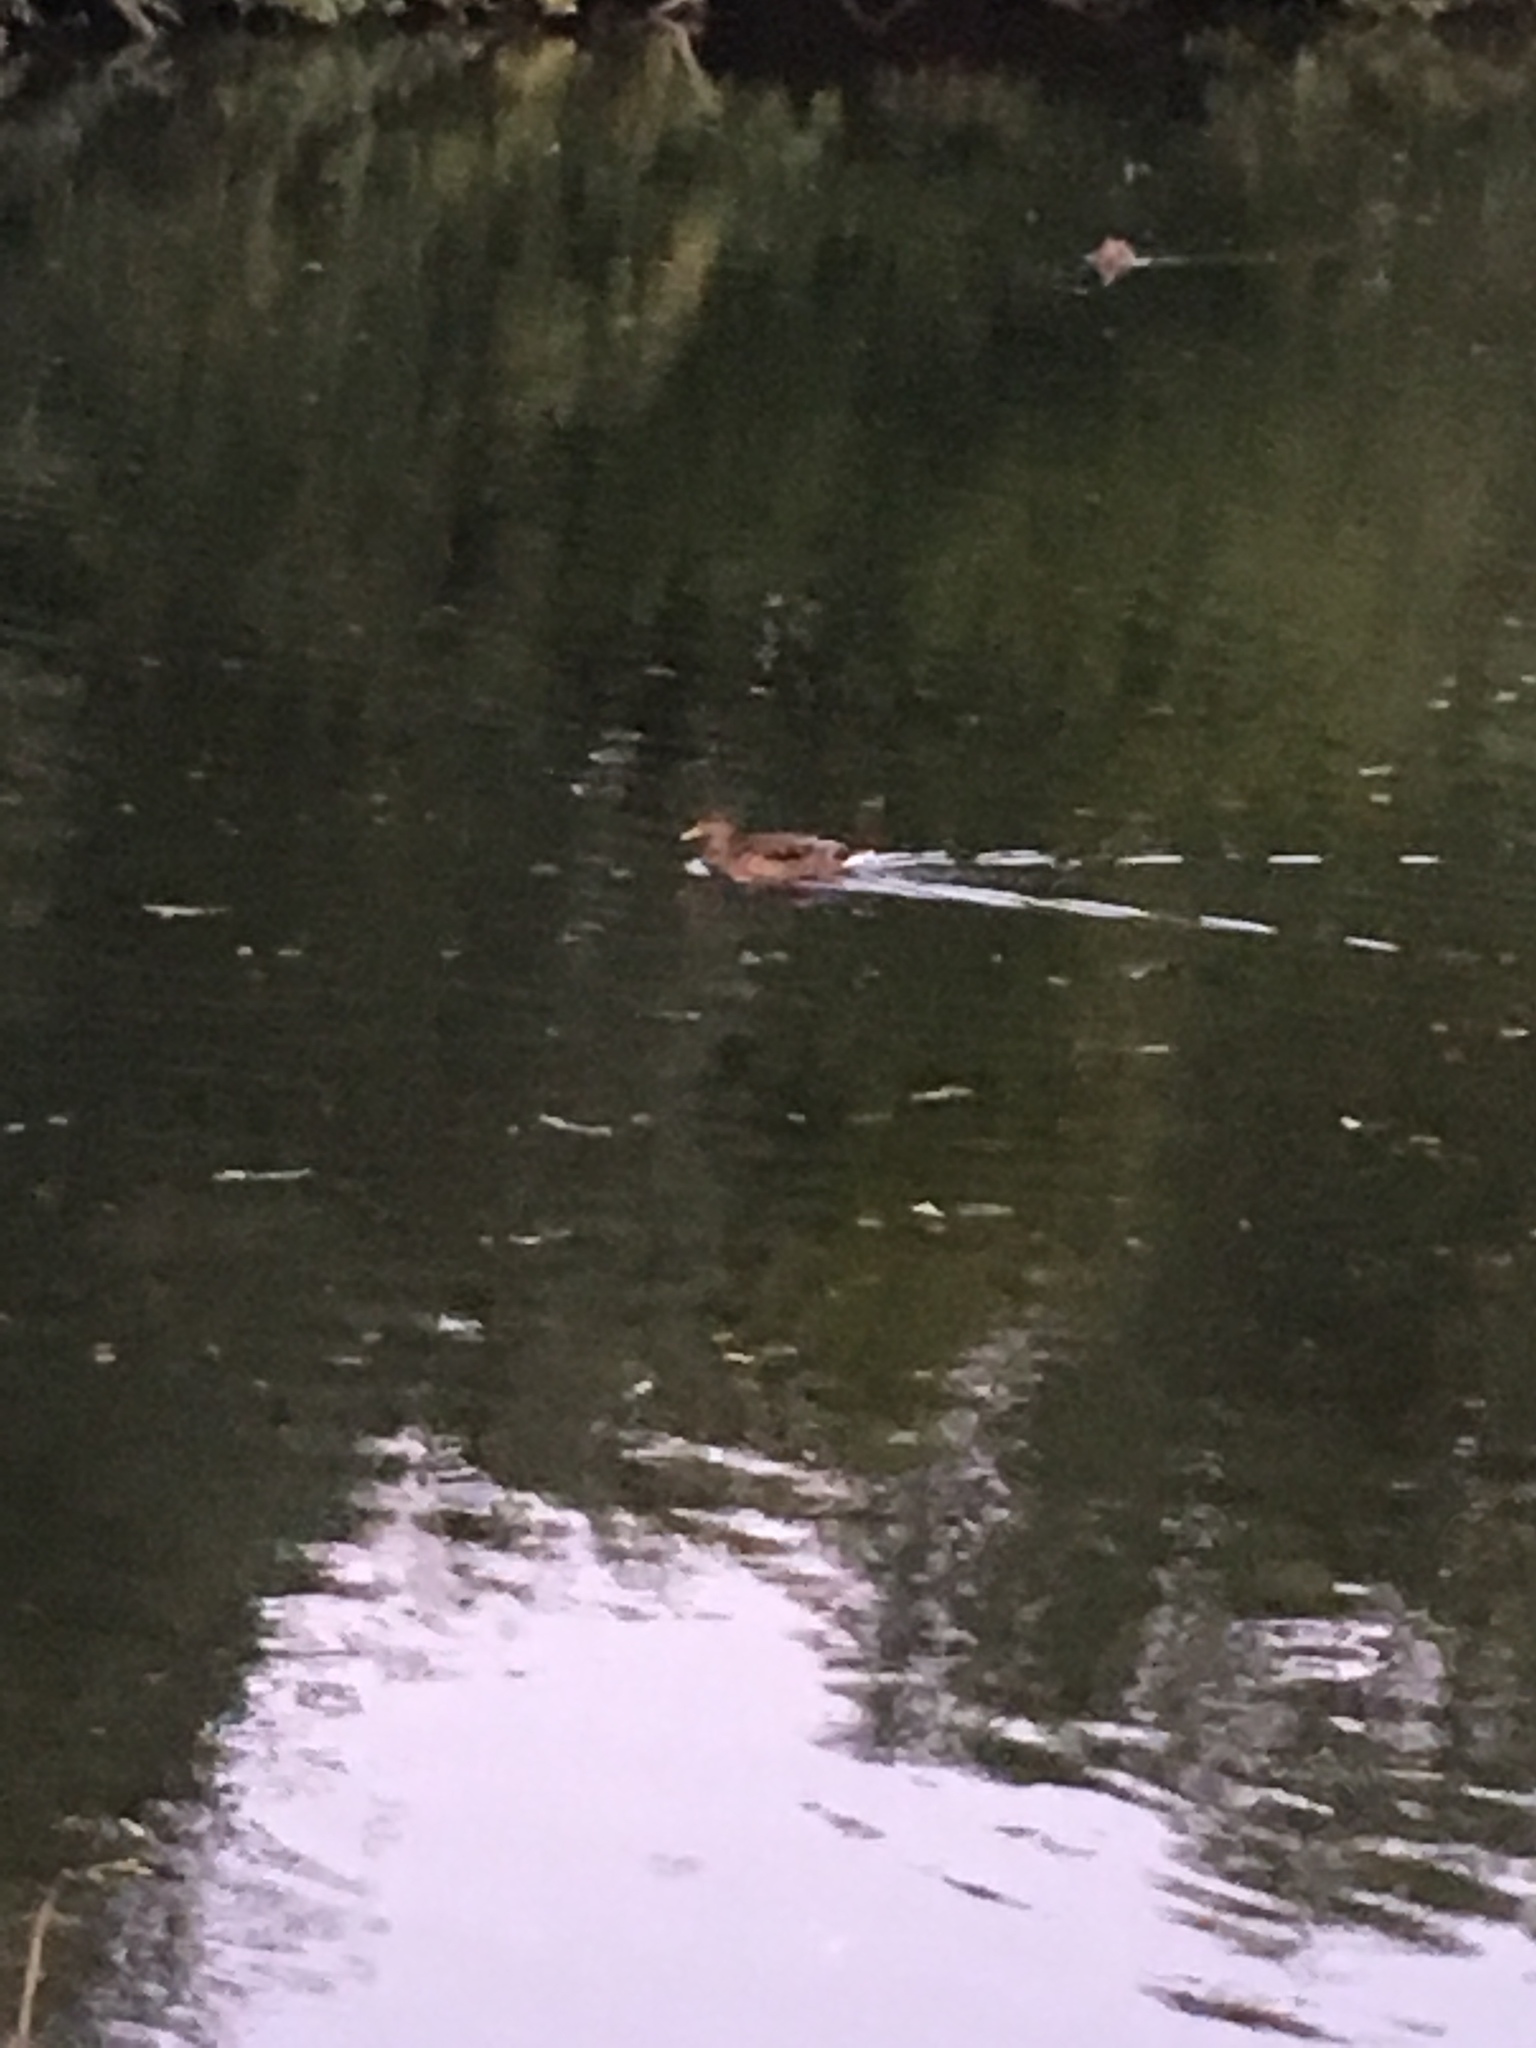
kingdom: Animalia
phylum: Chordata
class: Aves
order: Anseriformes
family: Anatidae
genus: Anas
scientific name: Anas platyrhynchos
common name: Mallard
